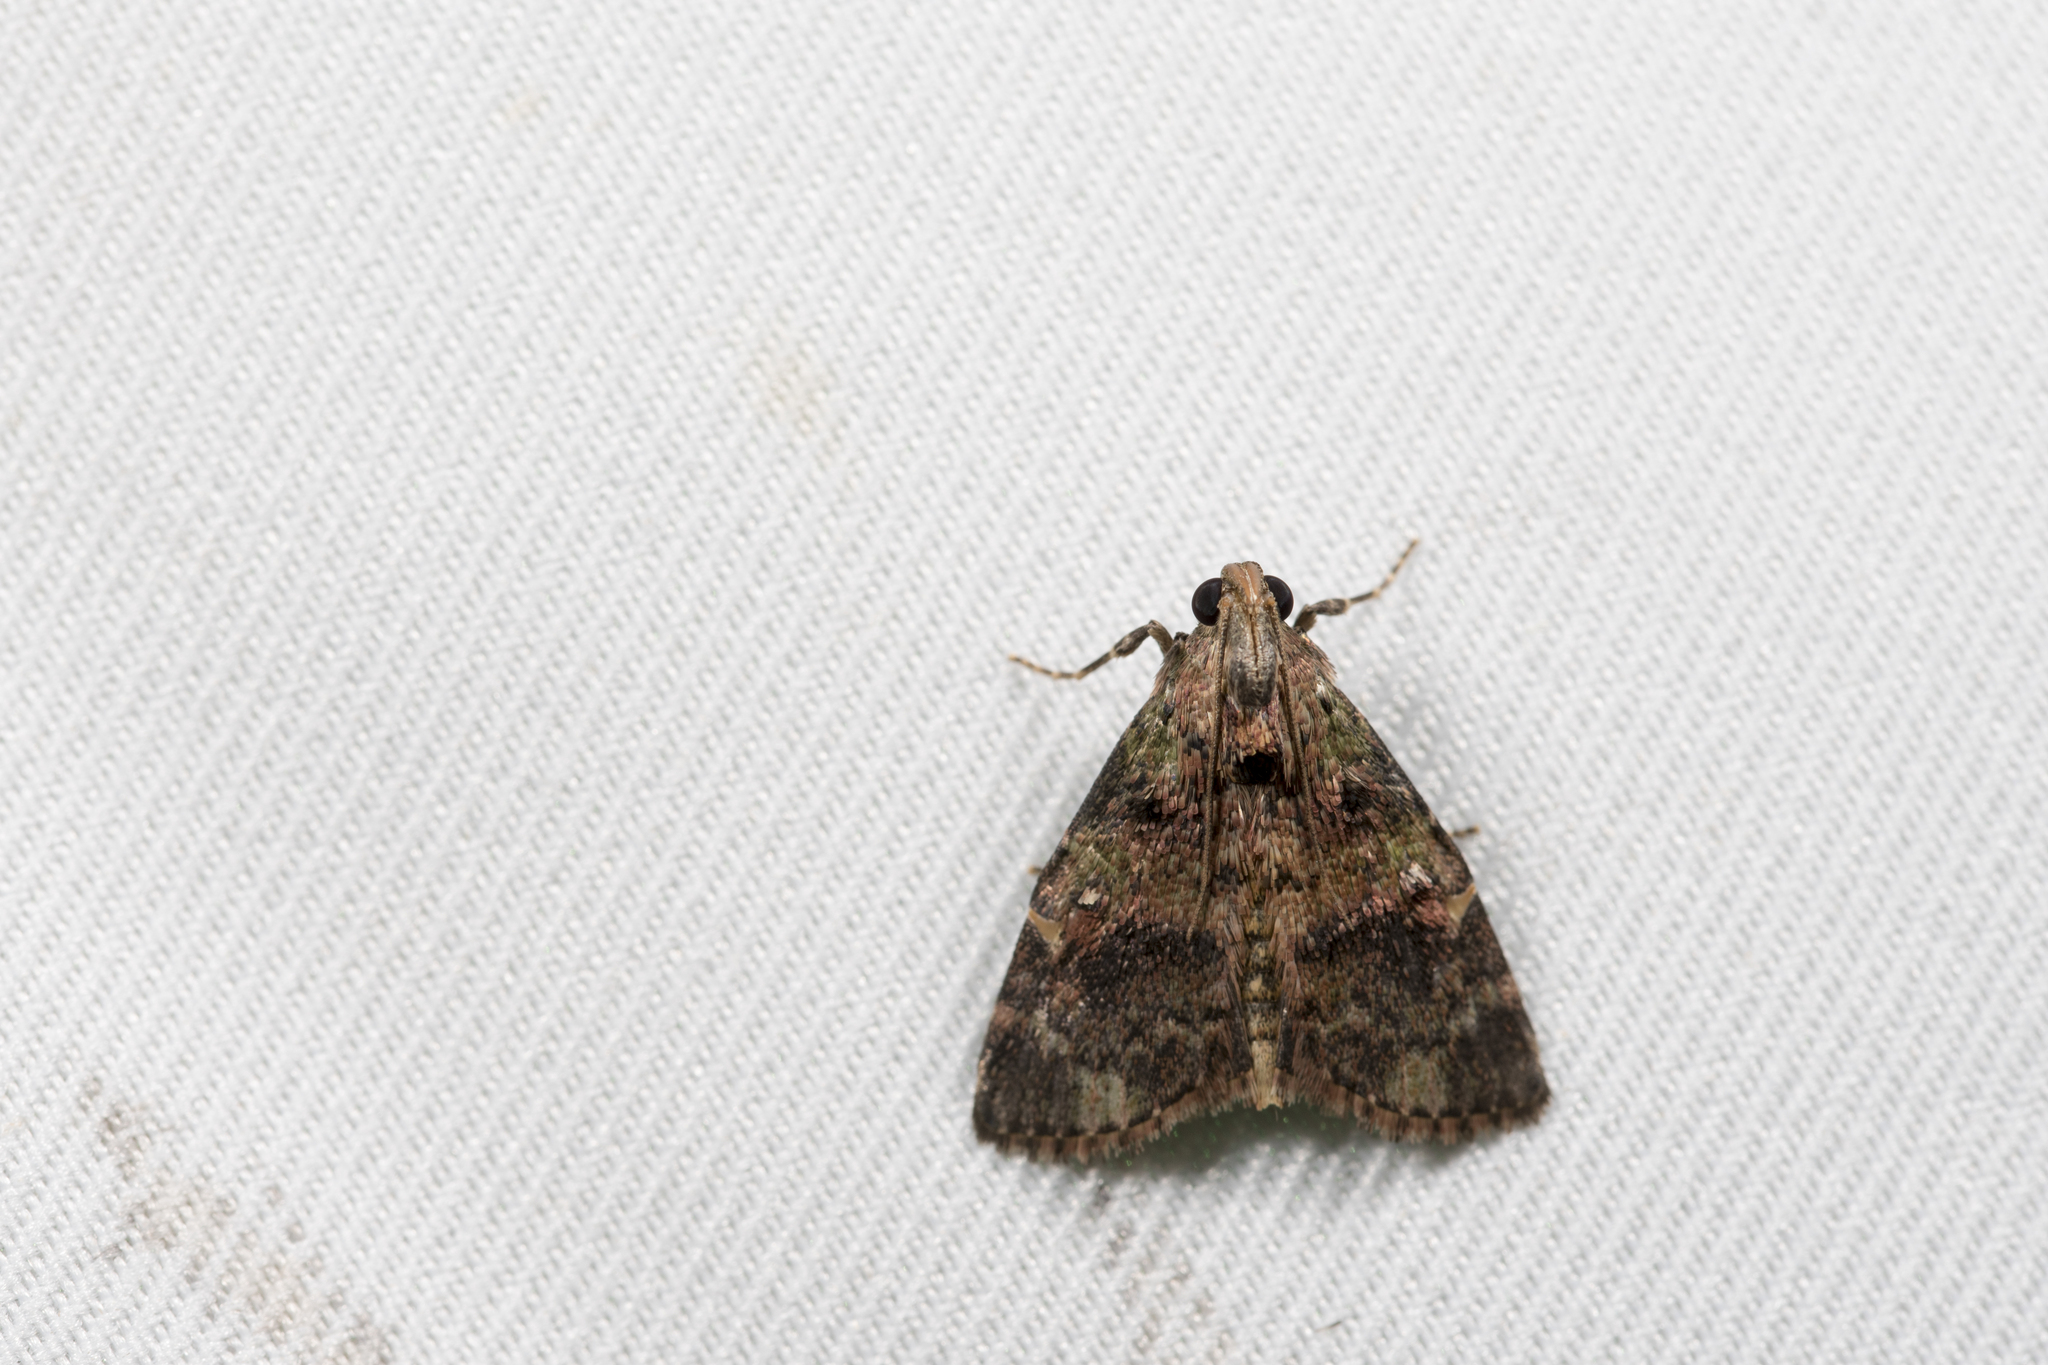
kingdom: Animalia
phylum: Arthropoda
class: Insecta
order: Lepidoptera
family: Pyralidae
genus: Orthaga
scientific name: Orthaga olivacea
